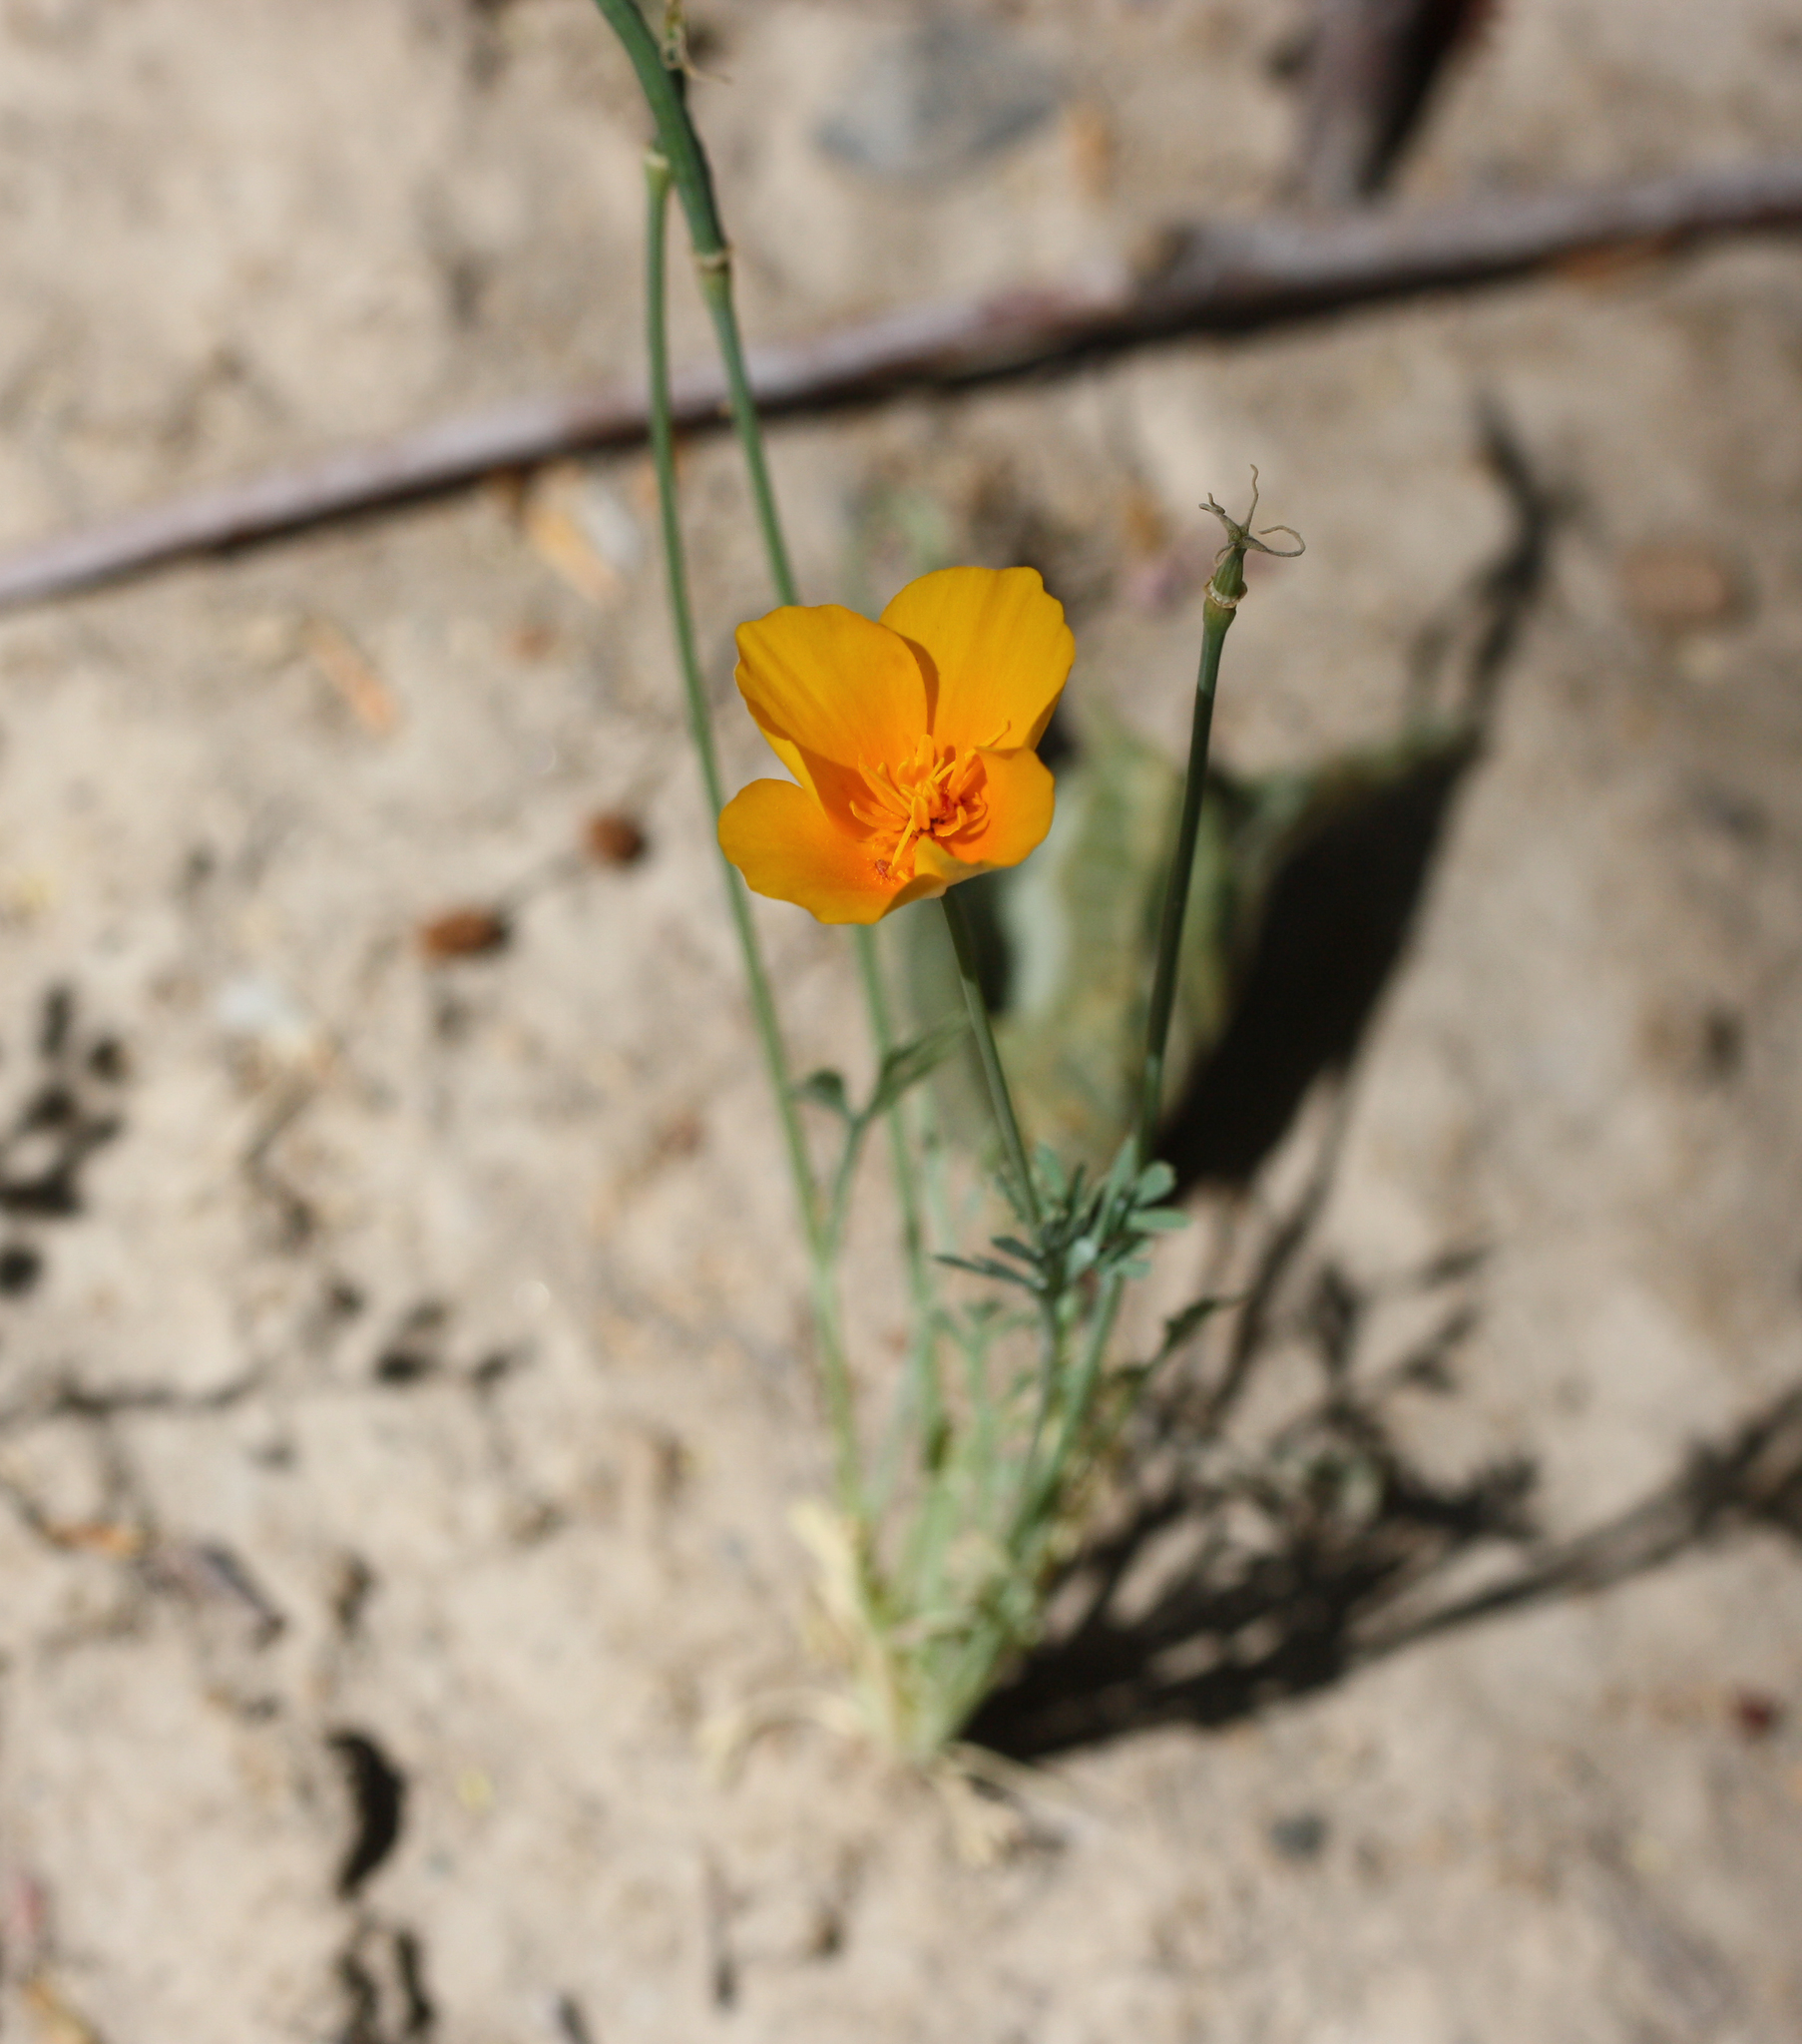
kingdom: Plantae
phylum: Tracheophyta
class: Magnoliopsida
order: Ranunculales
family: Papaveraceae
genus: Eschscholzia
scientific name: Eschscholzia californica
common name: California poppy
